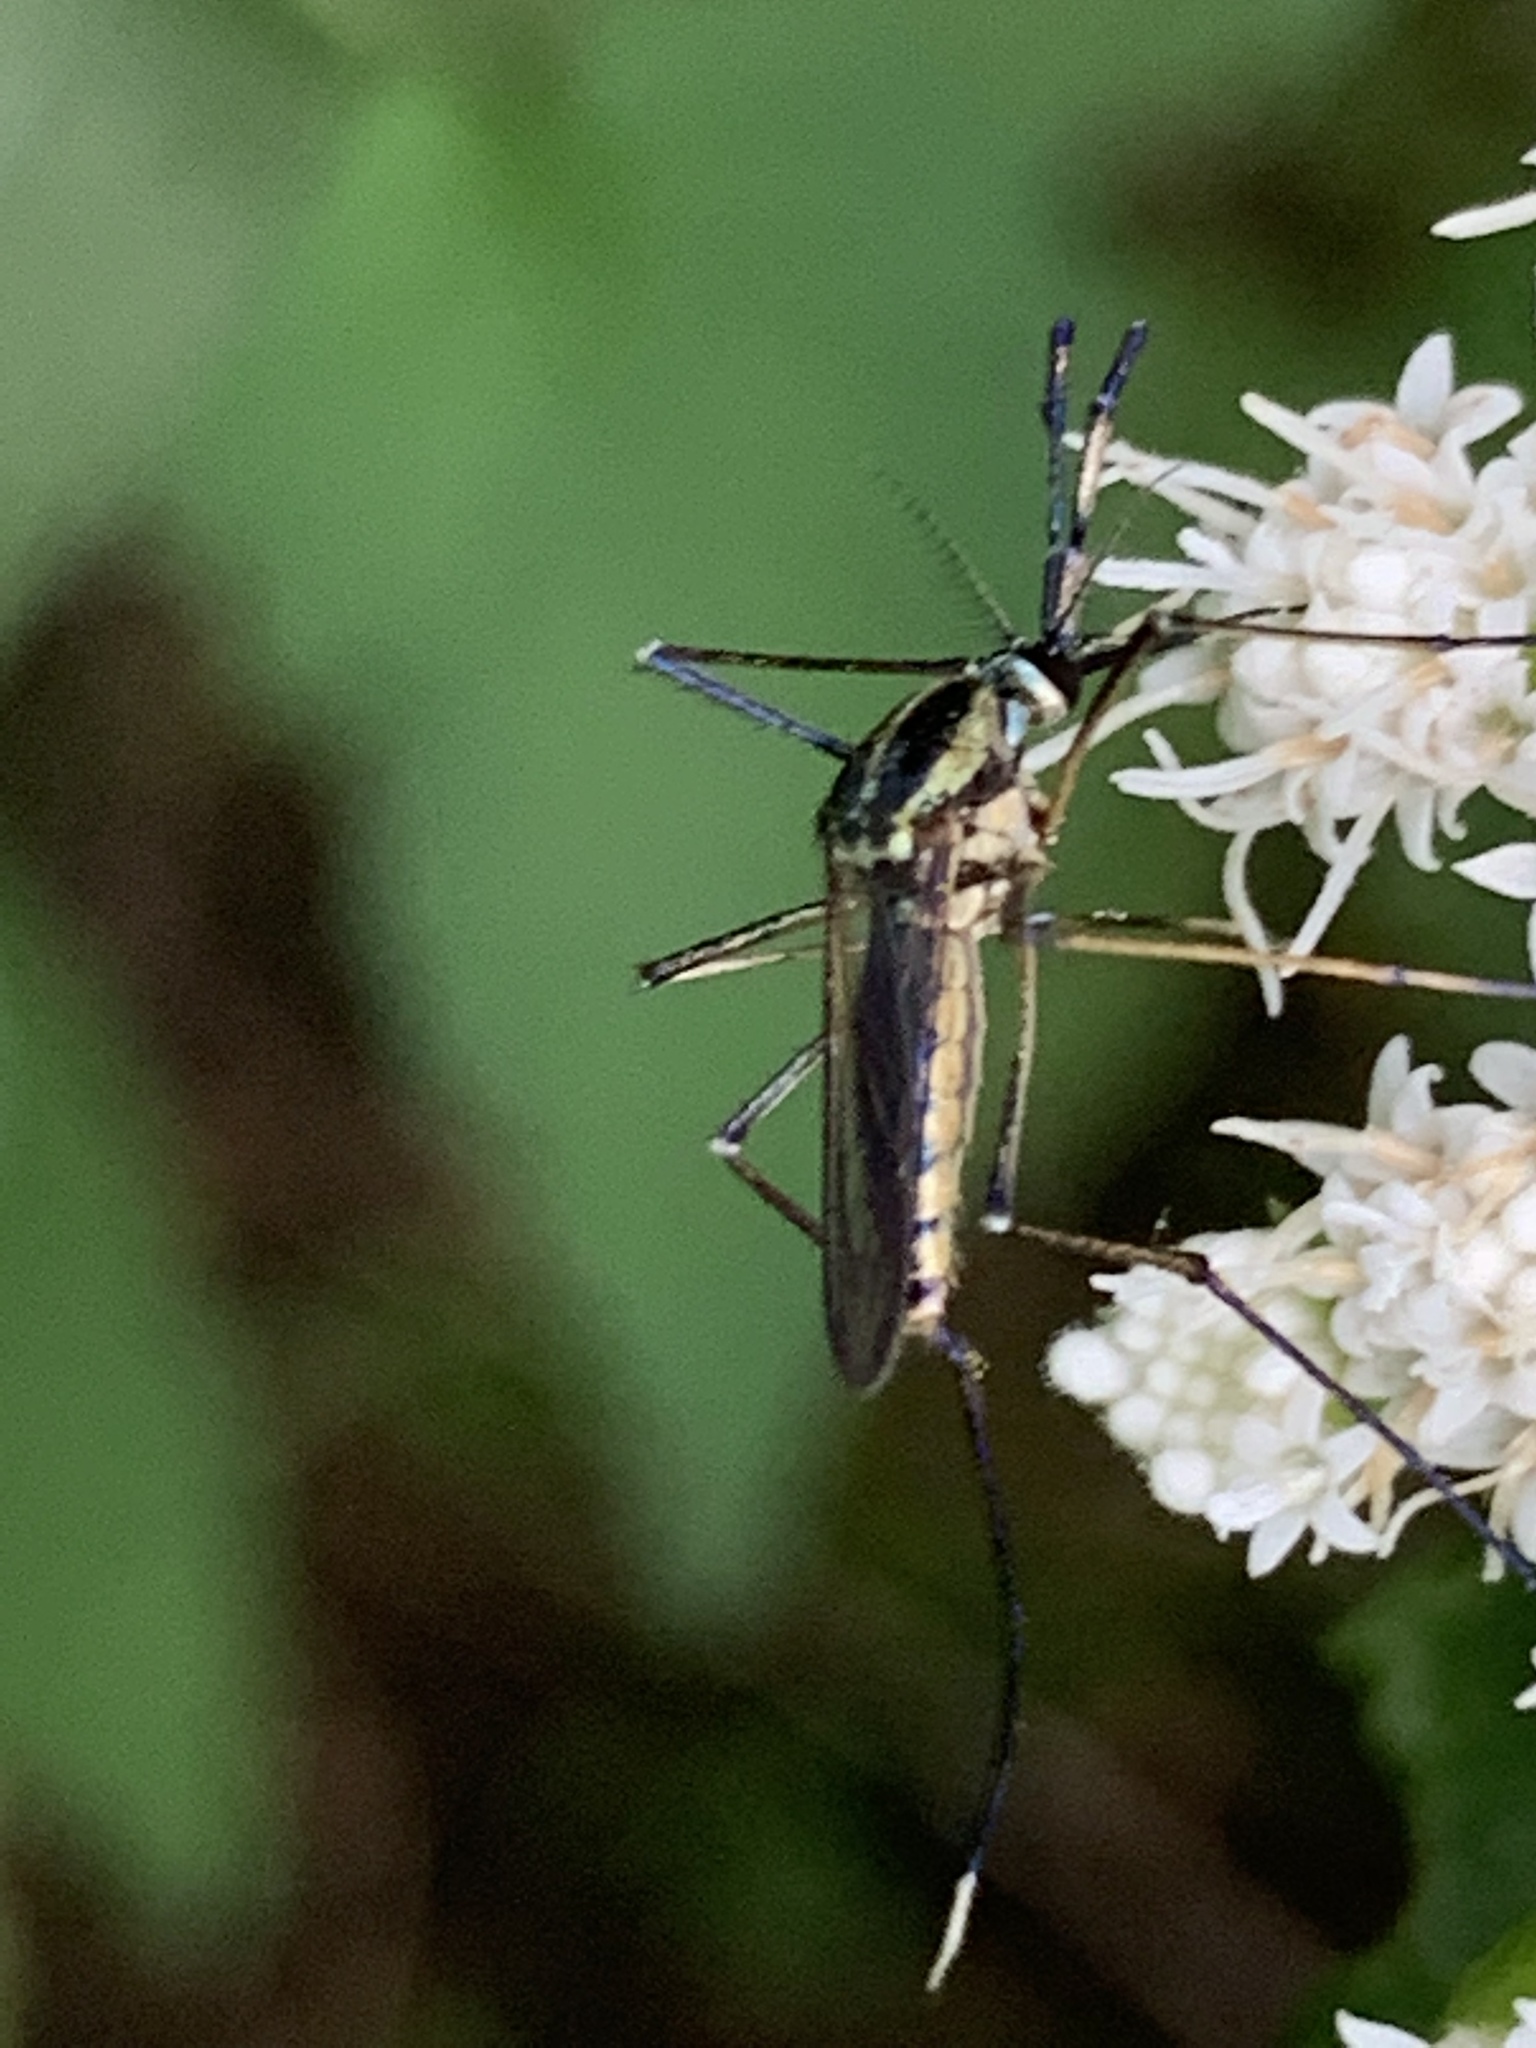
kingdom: Animalia
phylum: Arthropoda
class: Insecta
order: Diptera
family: Culicidae
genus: Toxorhynchites
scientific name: Toxorhynchites rutilus
